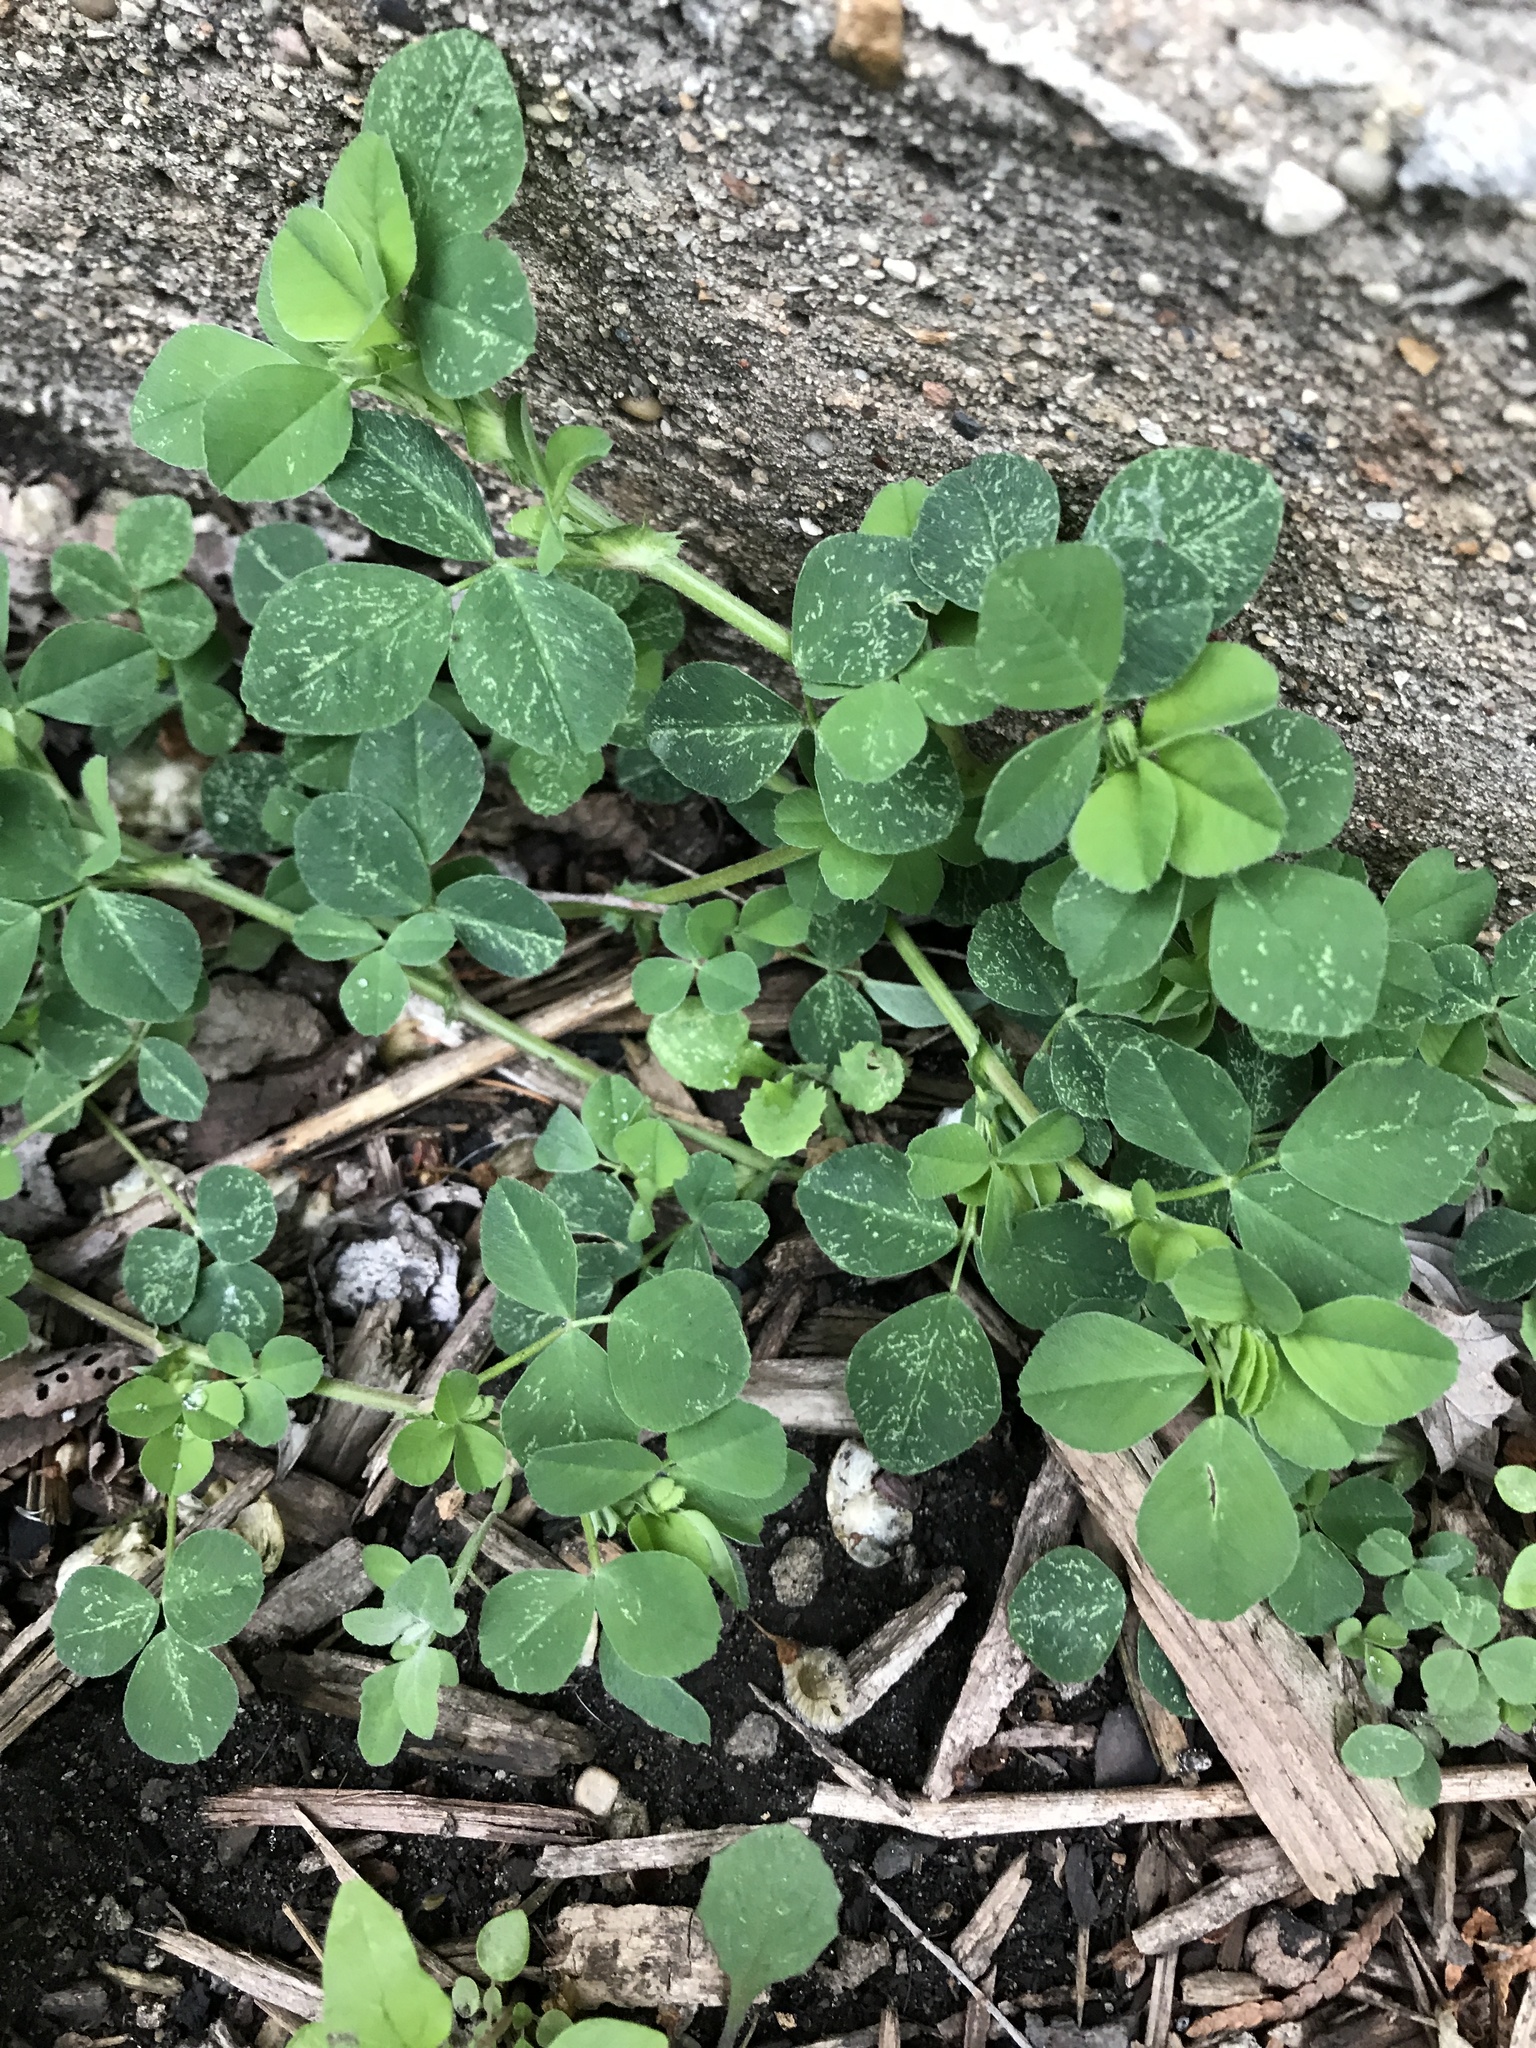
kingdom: Plantae
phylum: Tracheophyta
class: Magnoliopsida
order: Fabales
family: Fabaceae
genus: Medicago
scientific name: Medicago lupulina
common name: Black medick
